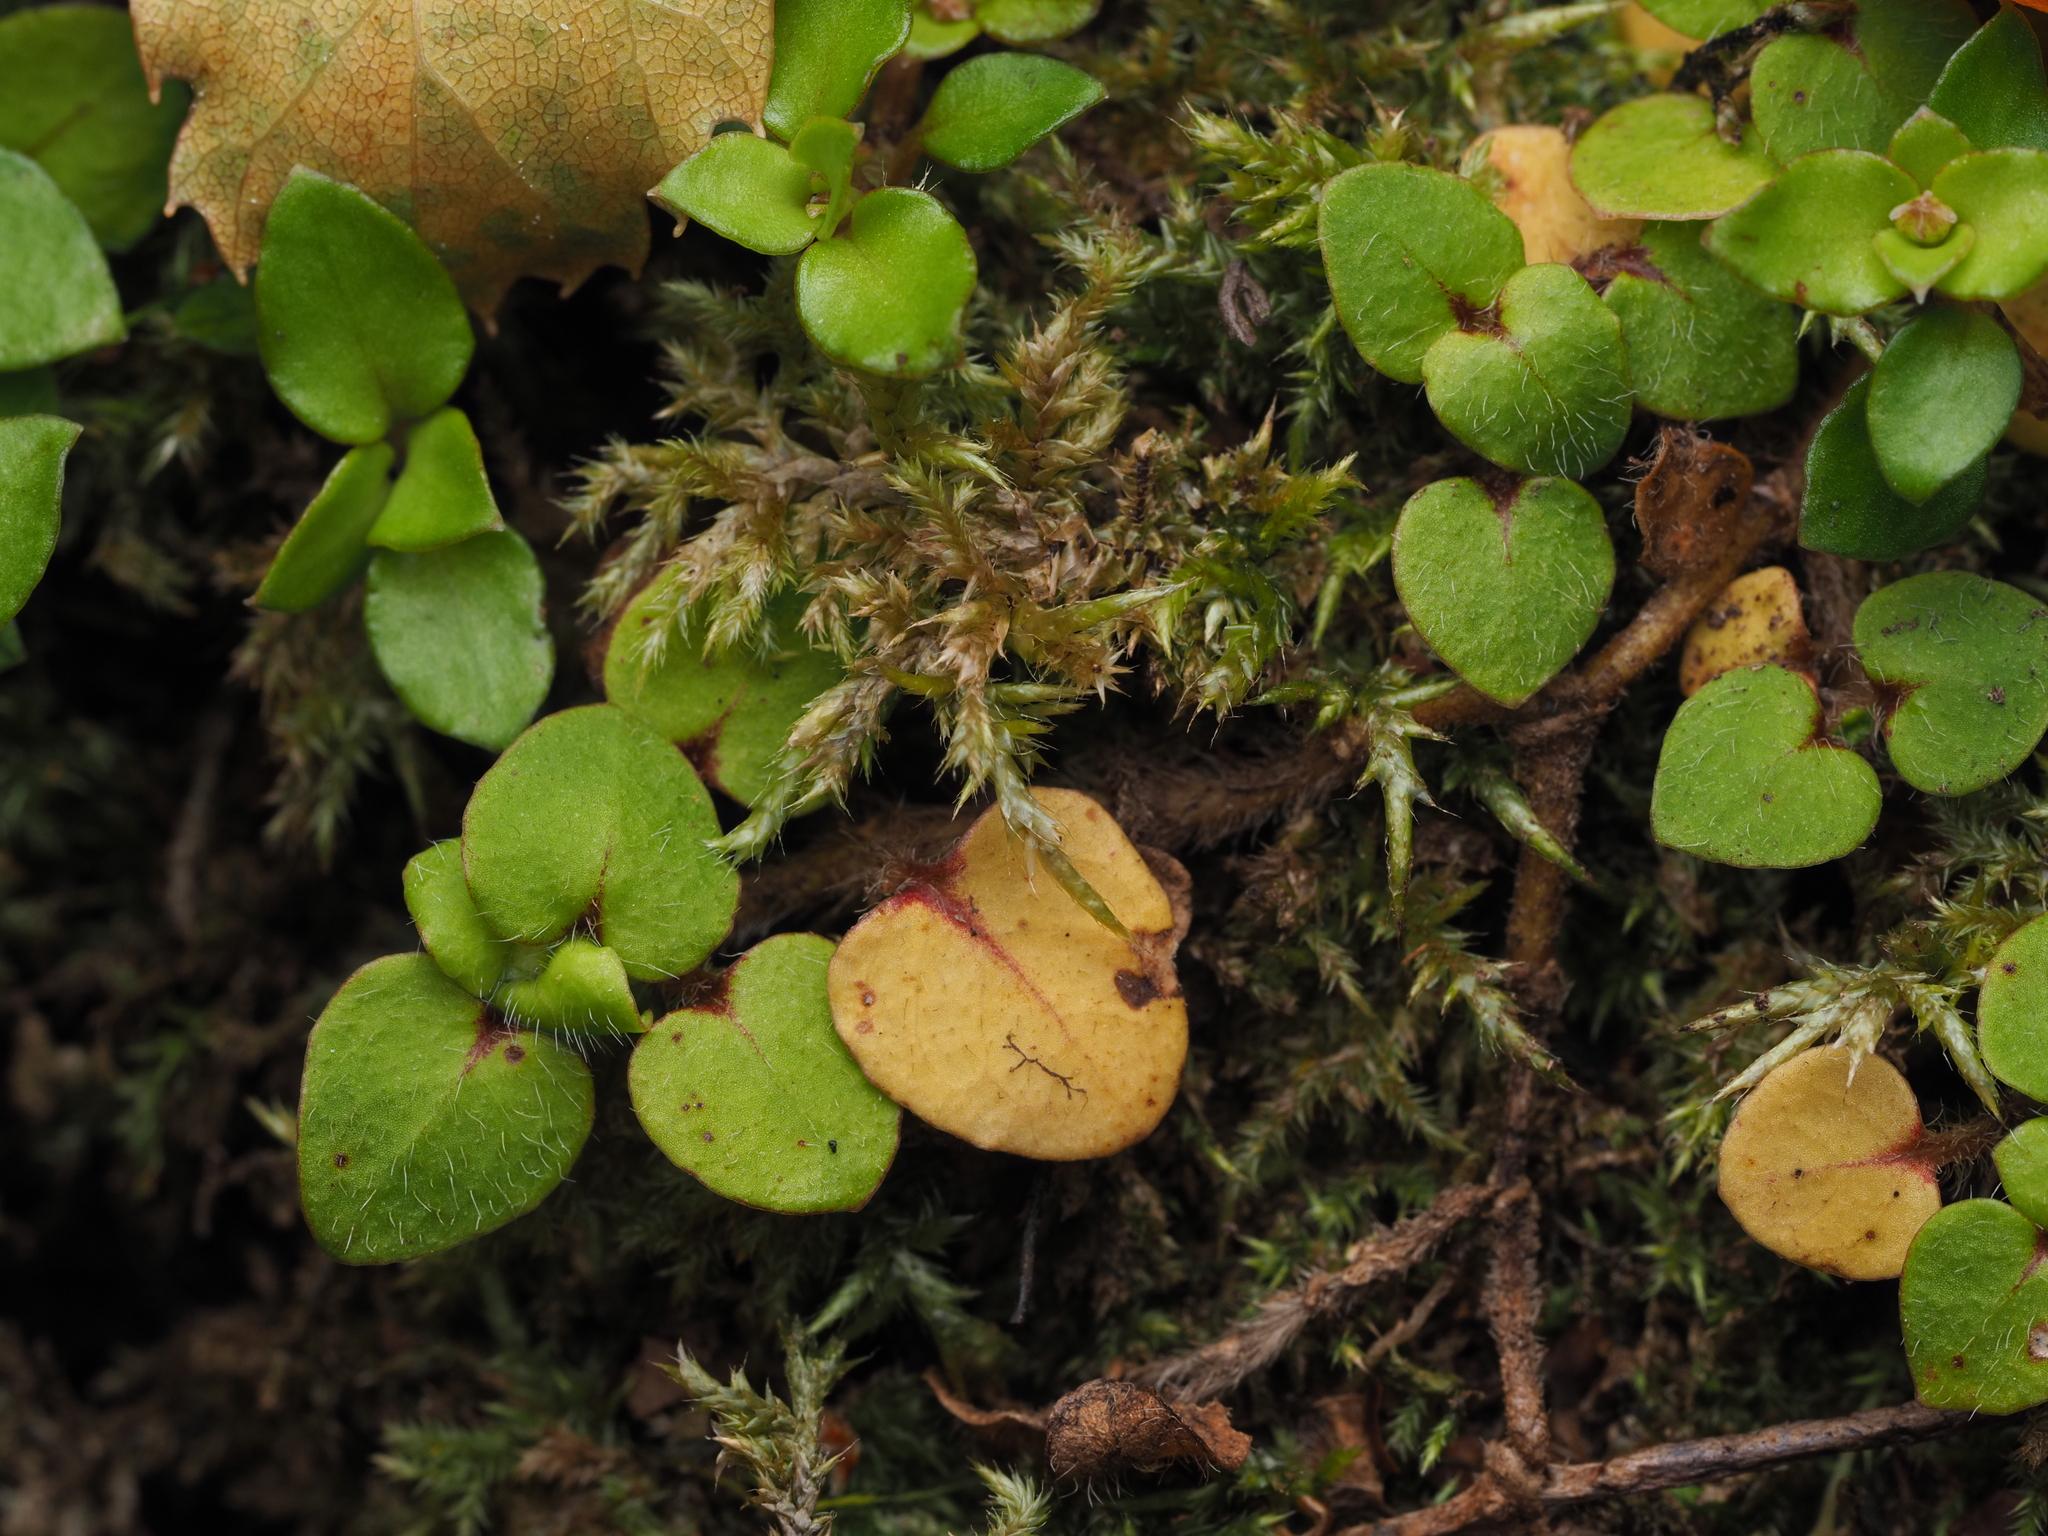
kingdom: Plantae
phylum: Tracheophyta
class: Magnoliopsida
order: Gentianales
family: Rubiaceae
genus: Nertera
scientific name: Nertera villosa
